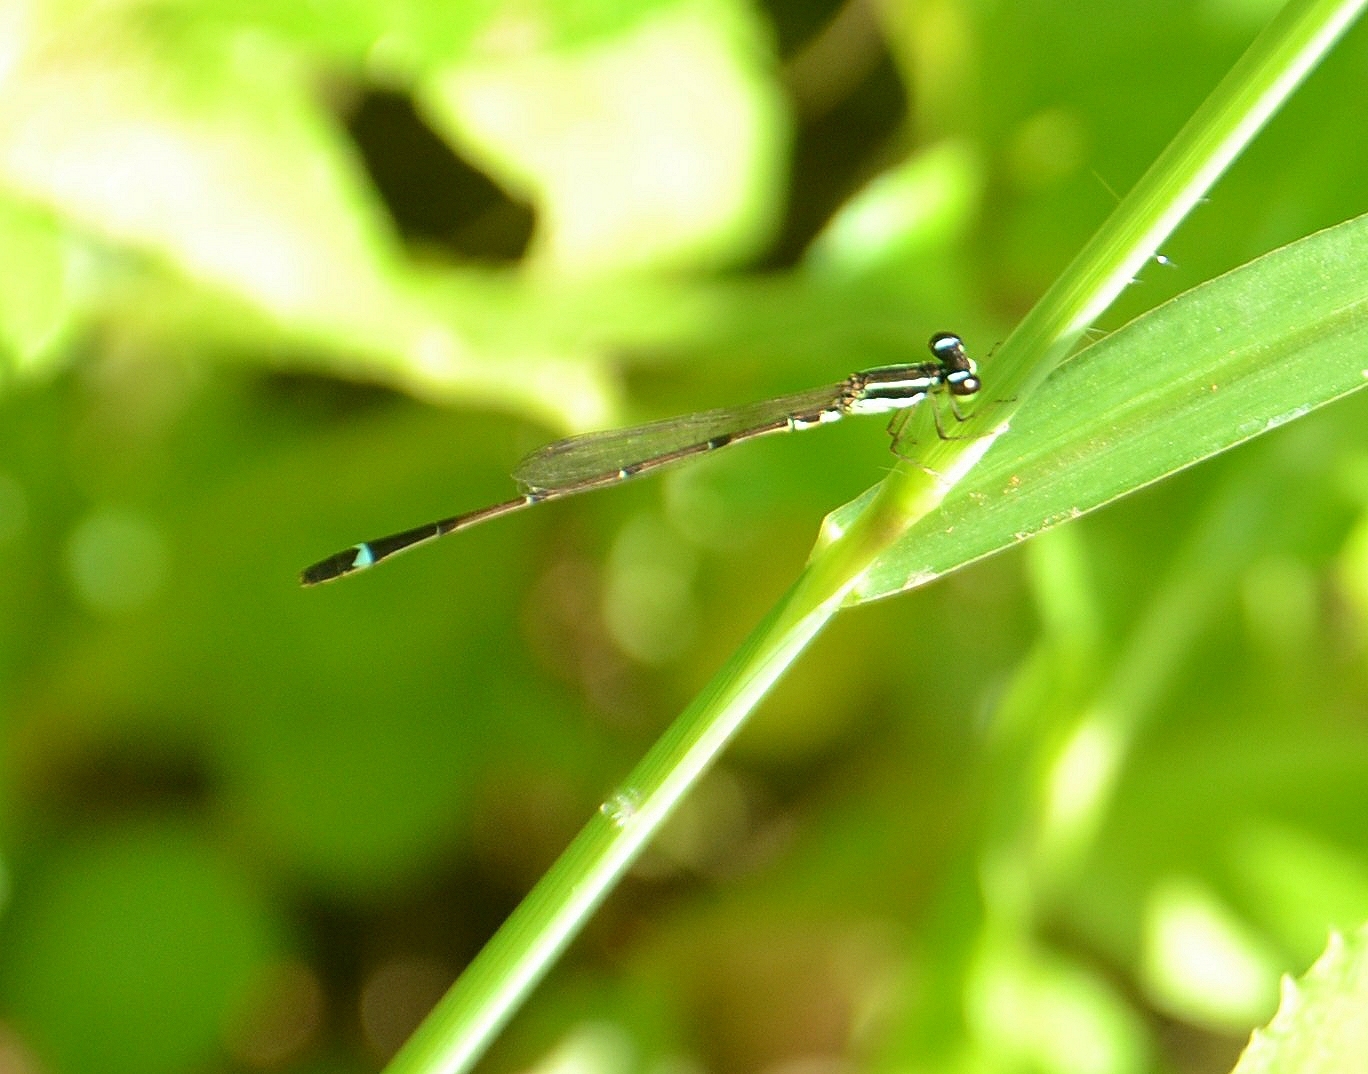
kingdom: Animalia
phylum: Arthropoda
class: Insecta
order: Odonata
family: Coenagrionidae
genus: Mortonagrion
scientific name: Mortonagrion varralli
